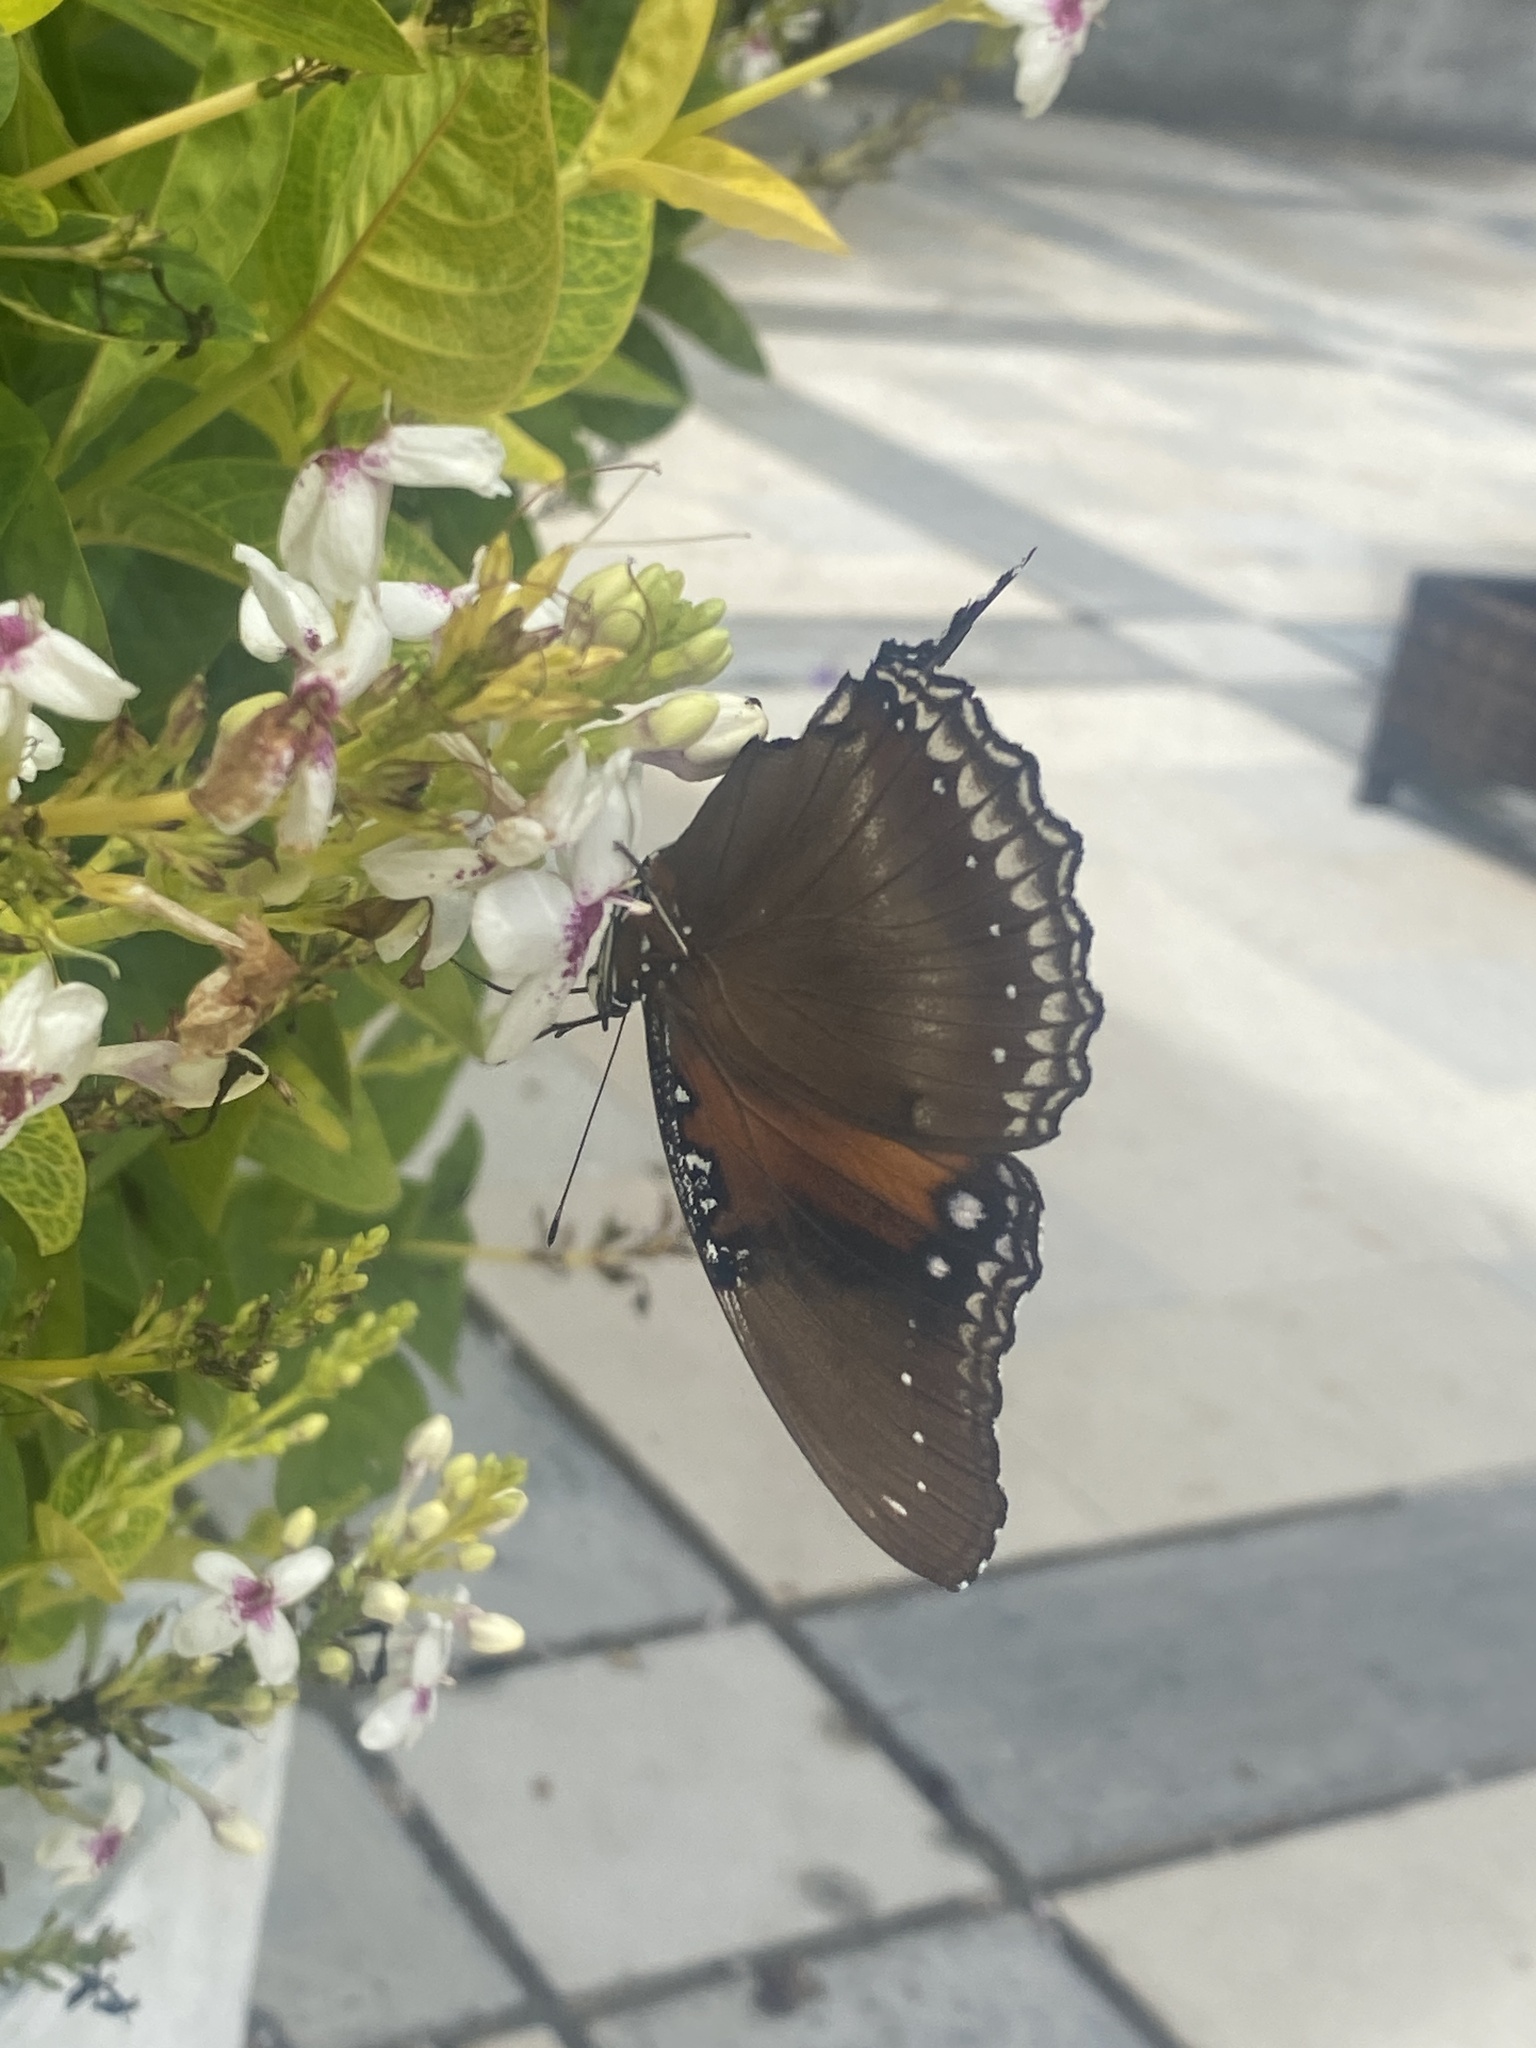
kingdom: Animalia
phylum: Arthropoda
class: Insecta
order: Lepidoptera
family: Nymphalidae
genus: Hypolimnas
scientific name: Hypolimnas bolina
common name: Great eggfly
